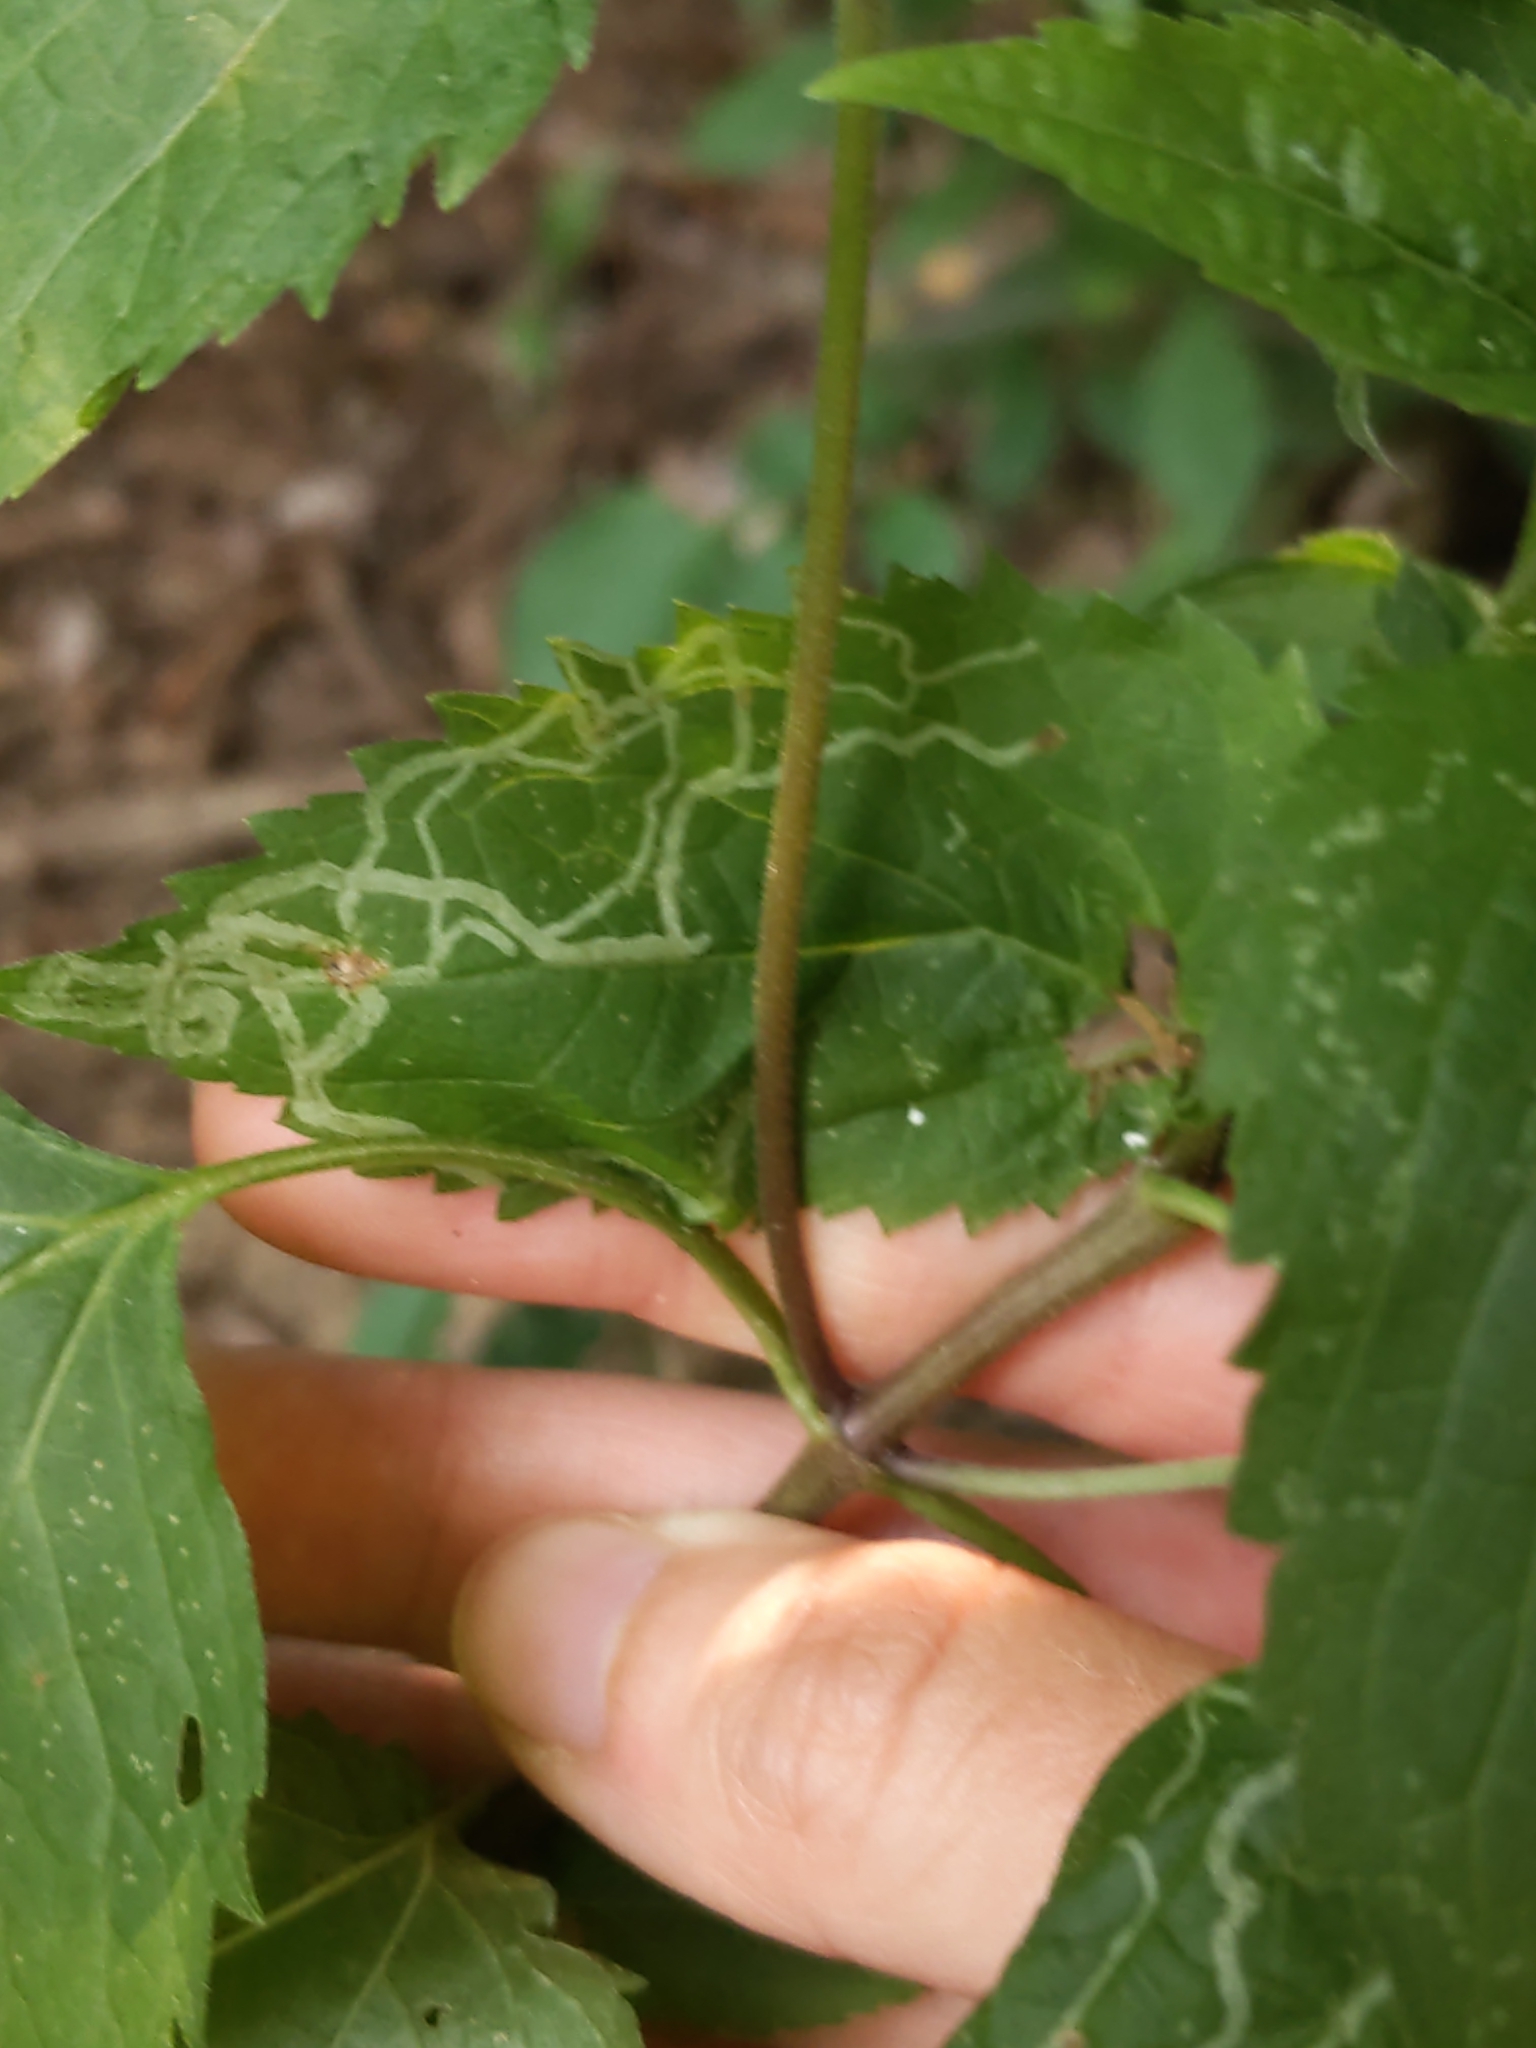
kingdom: Animalia
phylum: Arthropoda
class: Insecta
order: Diptera
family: Agromyzidae
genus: Liriomyza
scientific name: Liriomyza
